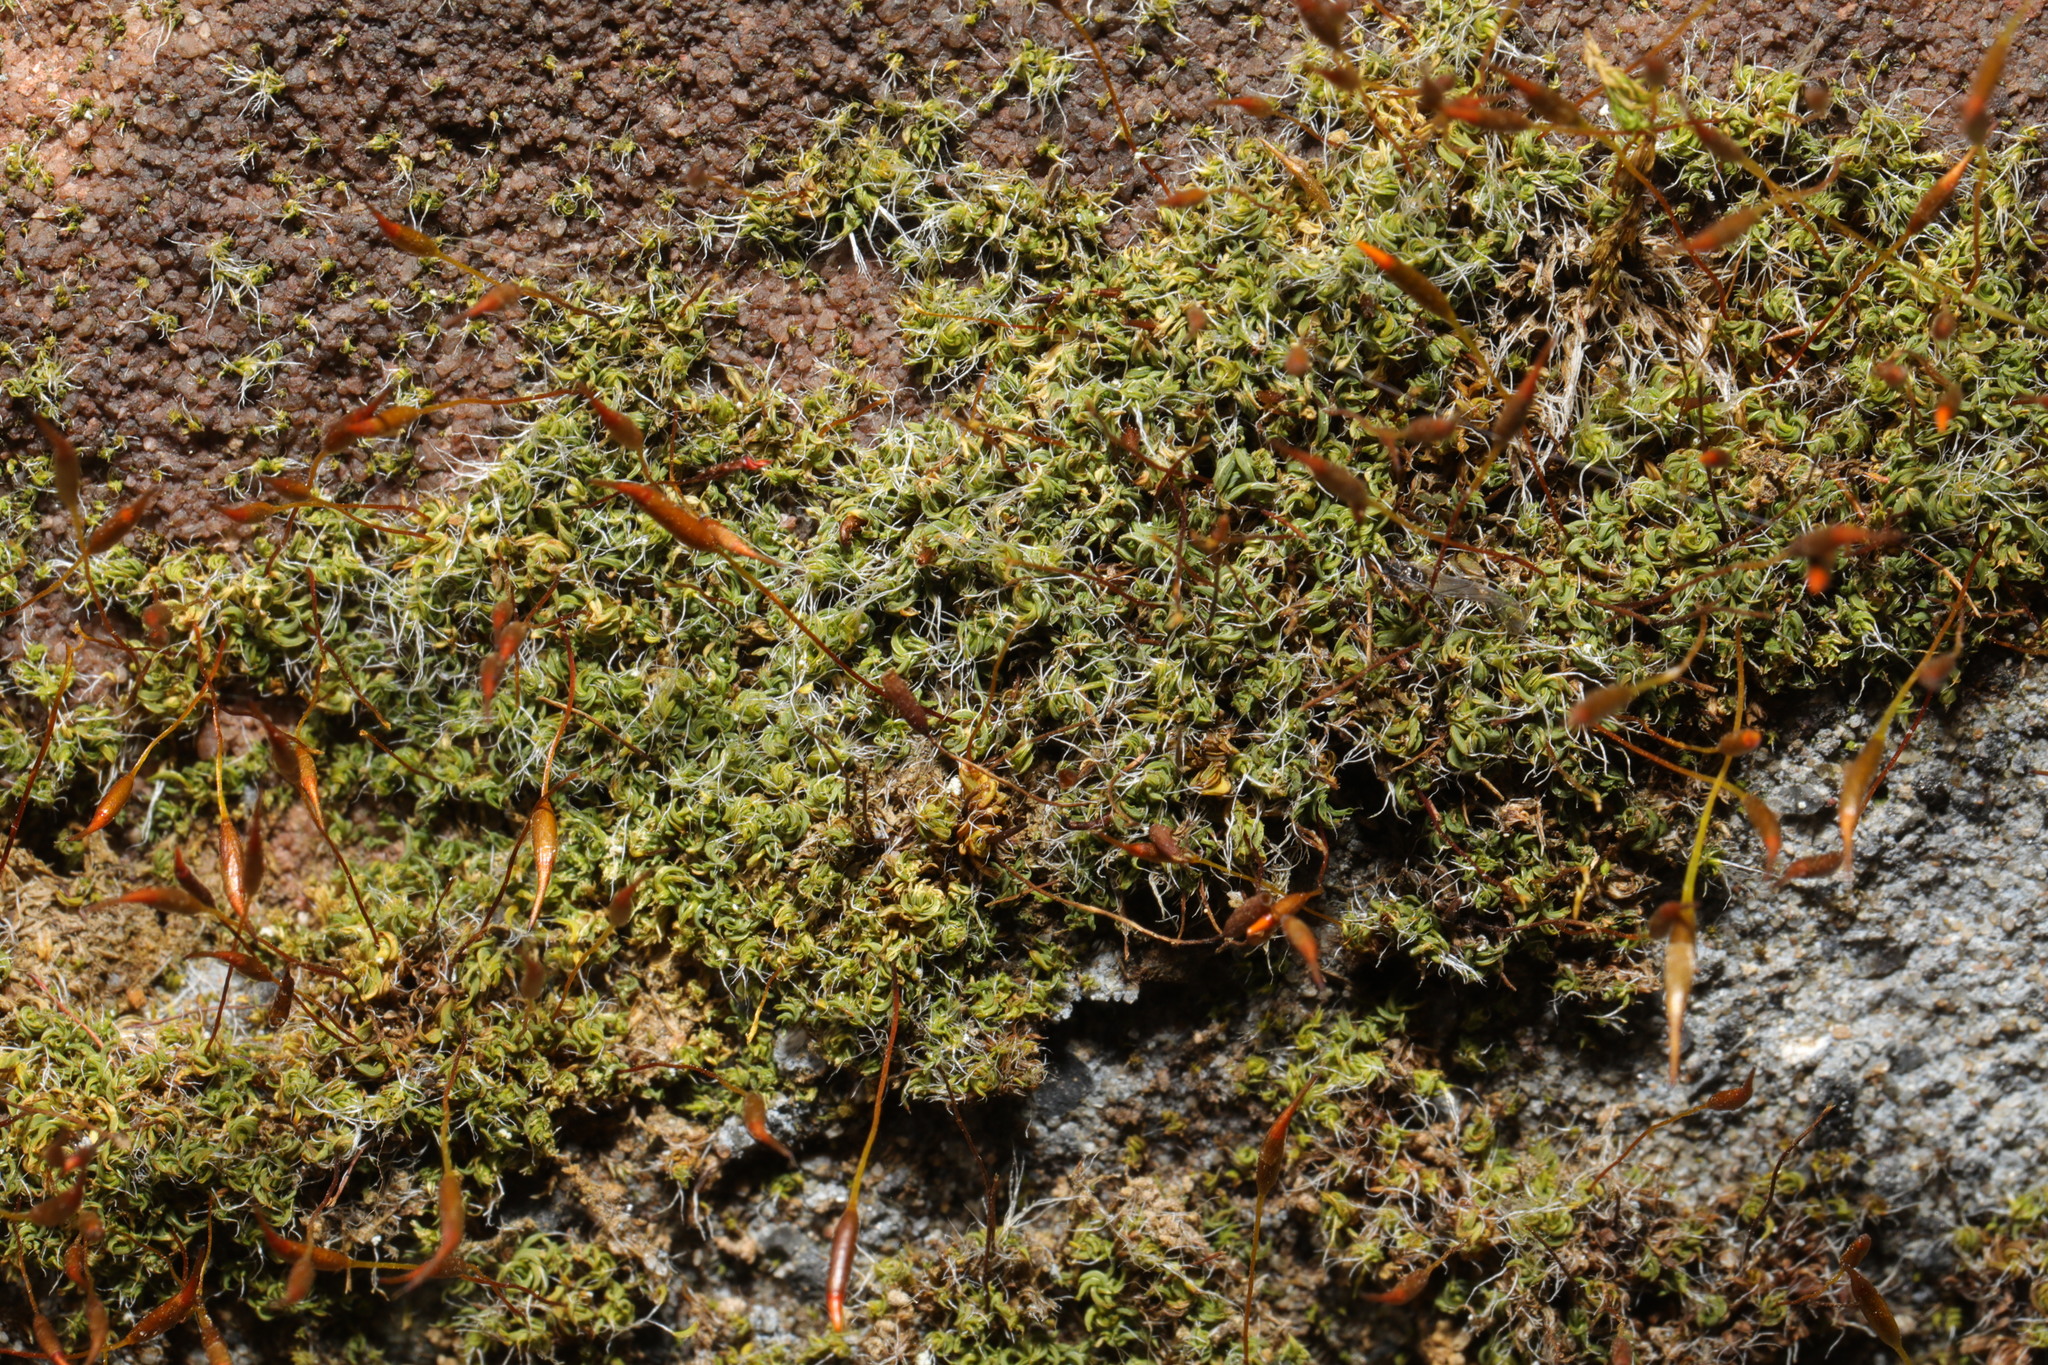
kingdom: Plantae
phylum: Bryophyta
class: Bryopsida
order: Pottiales
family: Pottiaceae
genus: Tortula
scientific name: Tortula muralis
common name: Wall screw-moss
